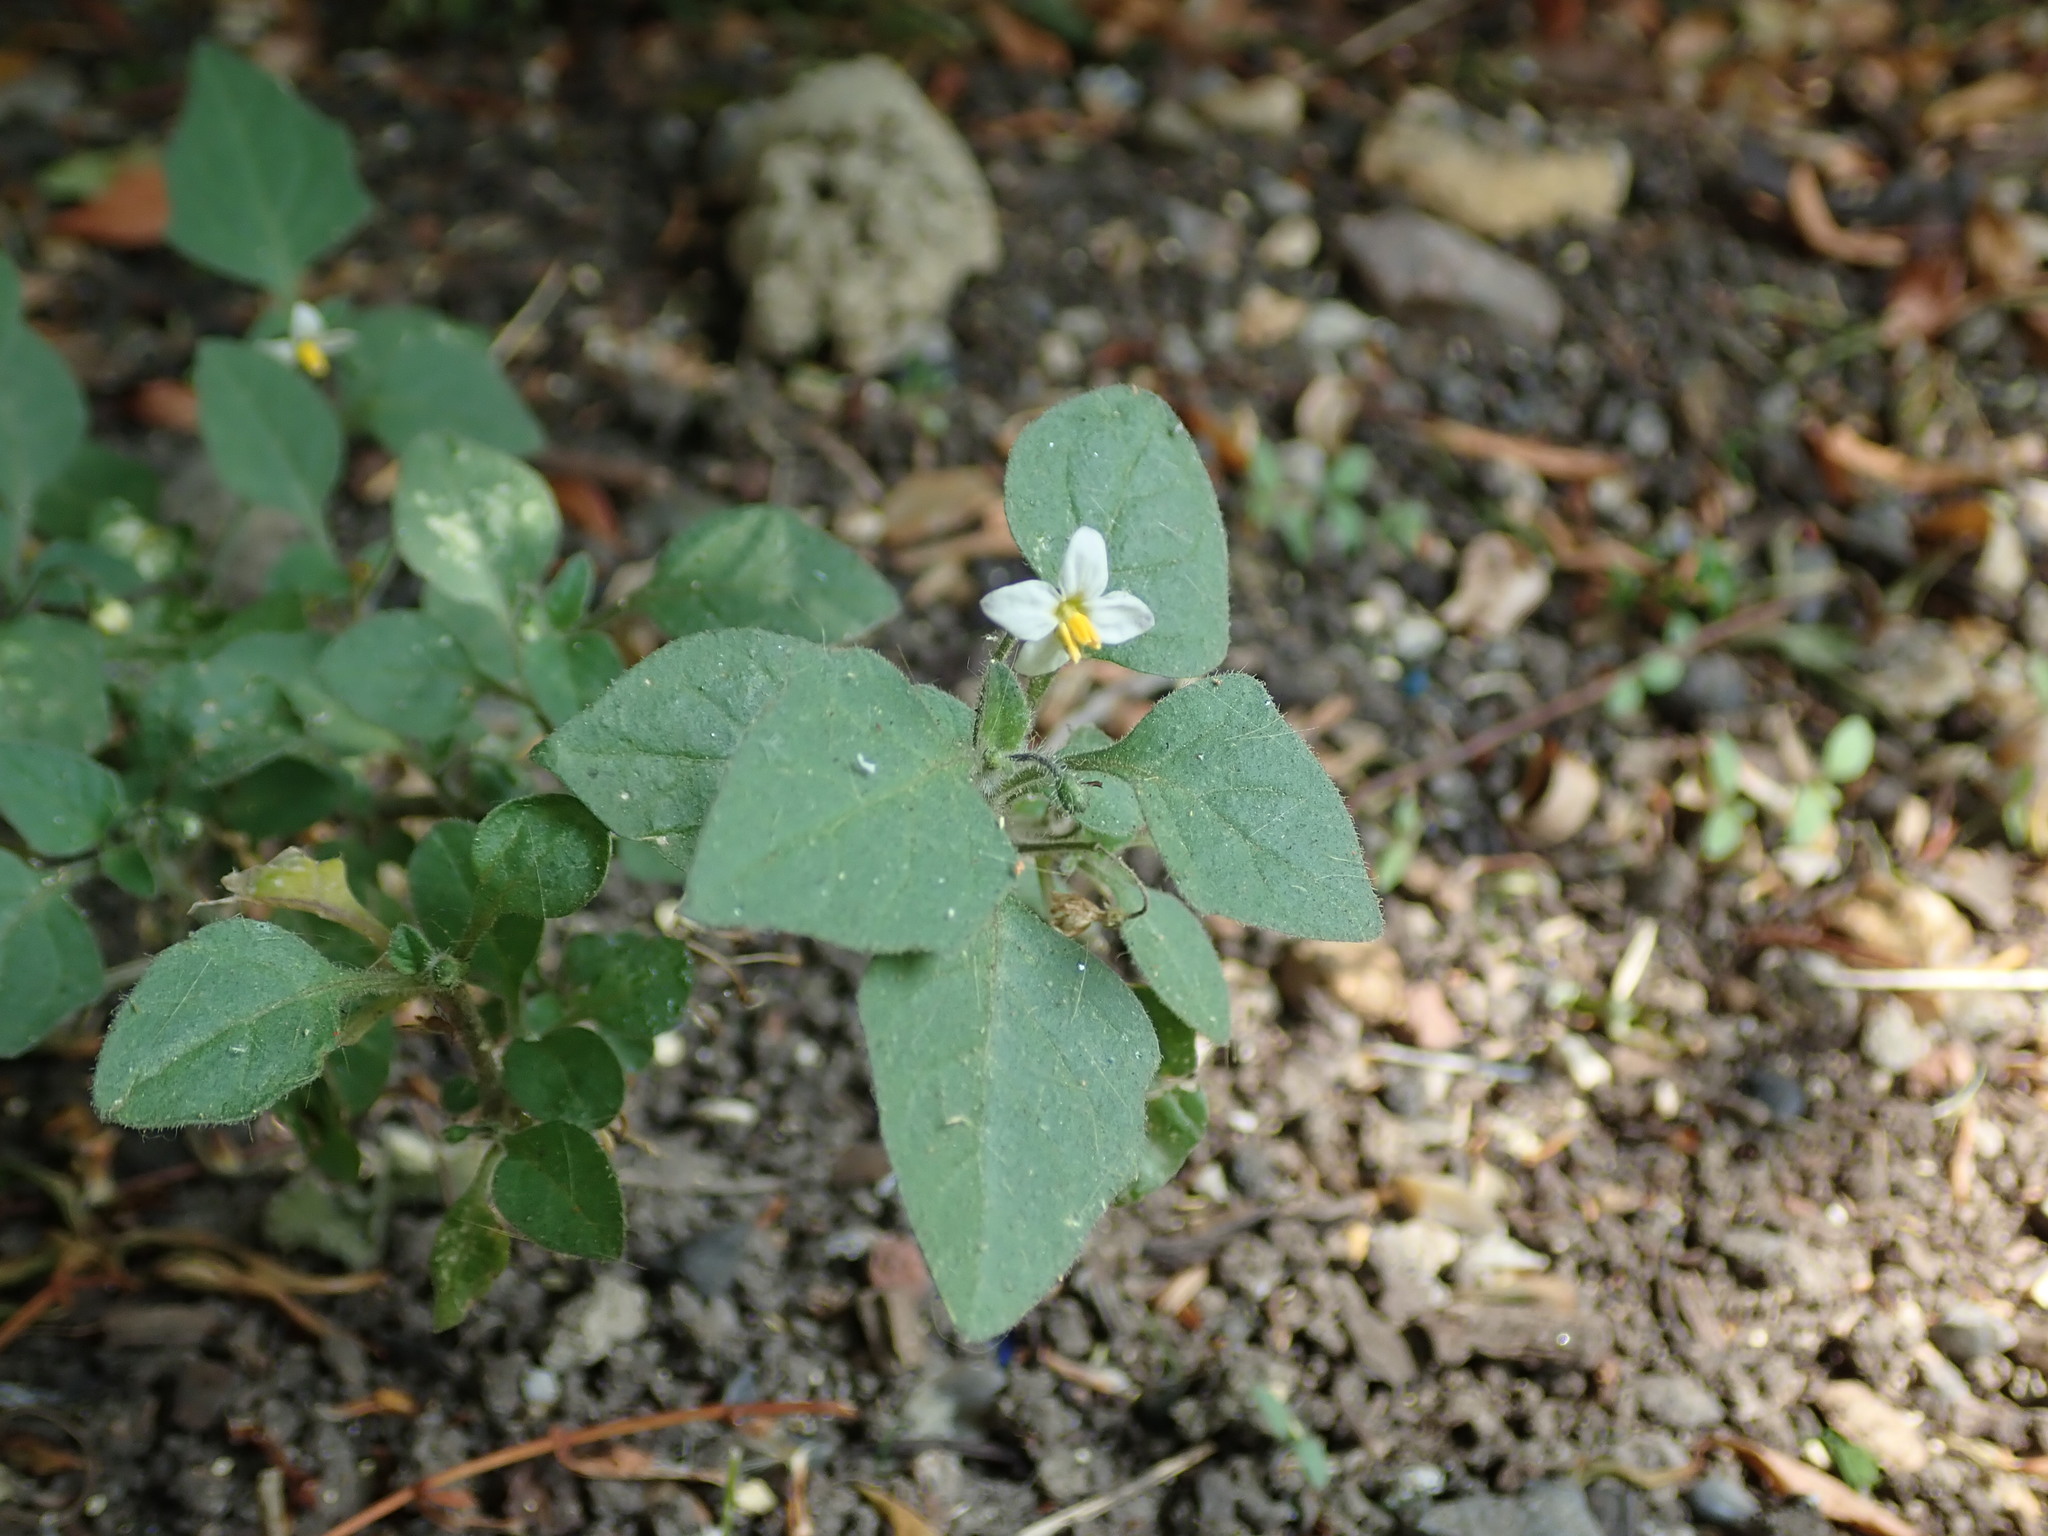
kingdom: Plantae
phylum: Tracheophyta
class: Magnoliopsida
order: Solanales
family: Solanaceae
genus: Solanum
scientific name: Solanum nigrum
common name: Black nightshade
